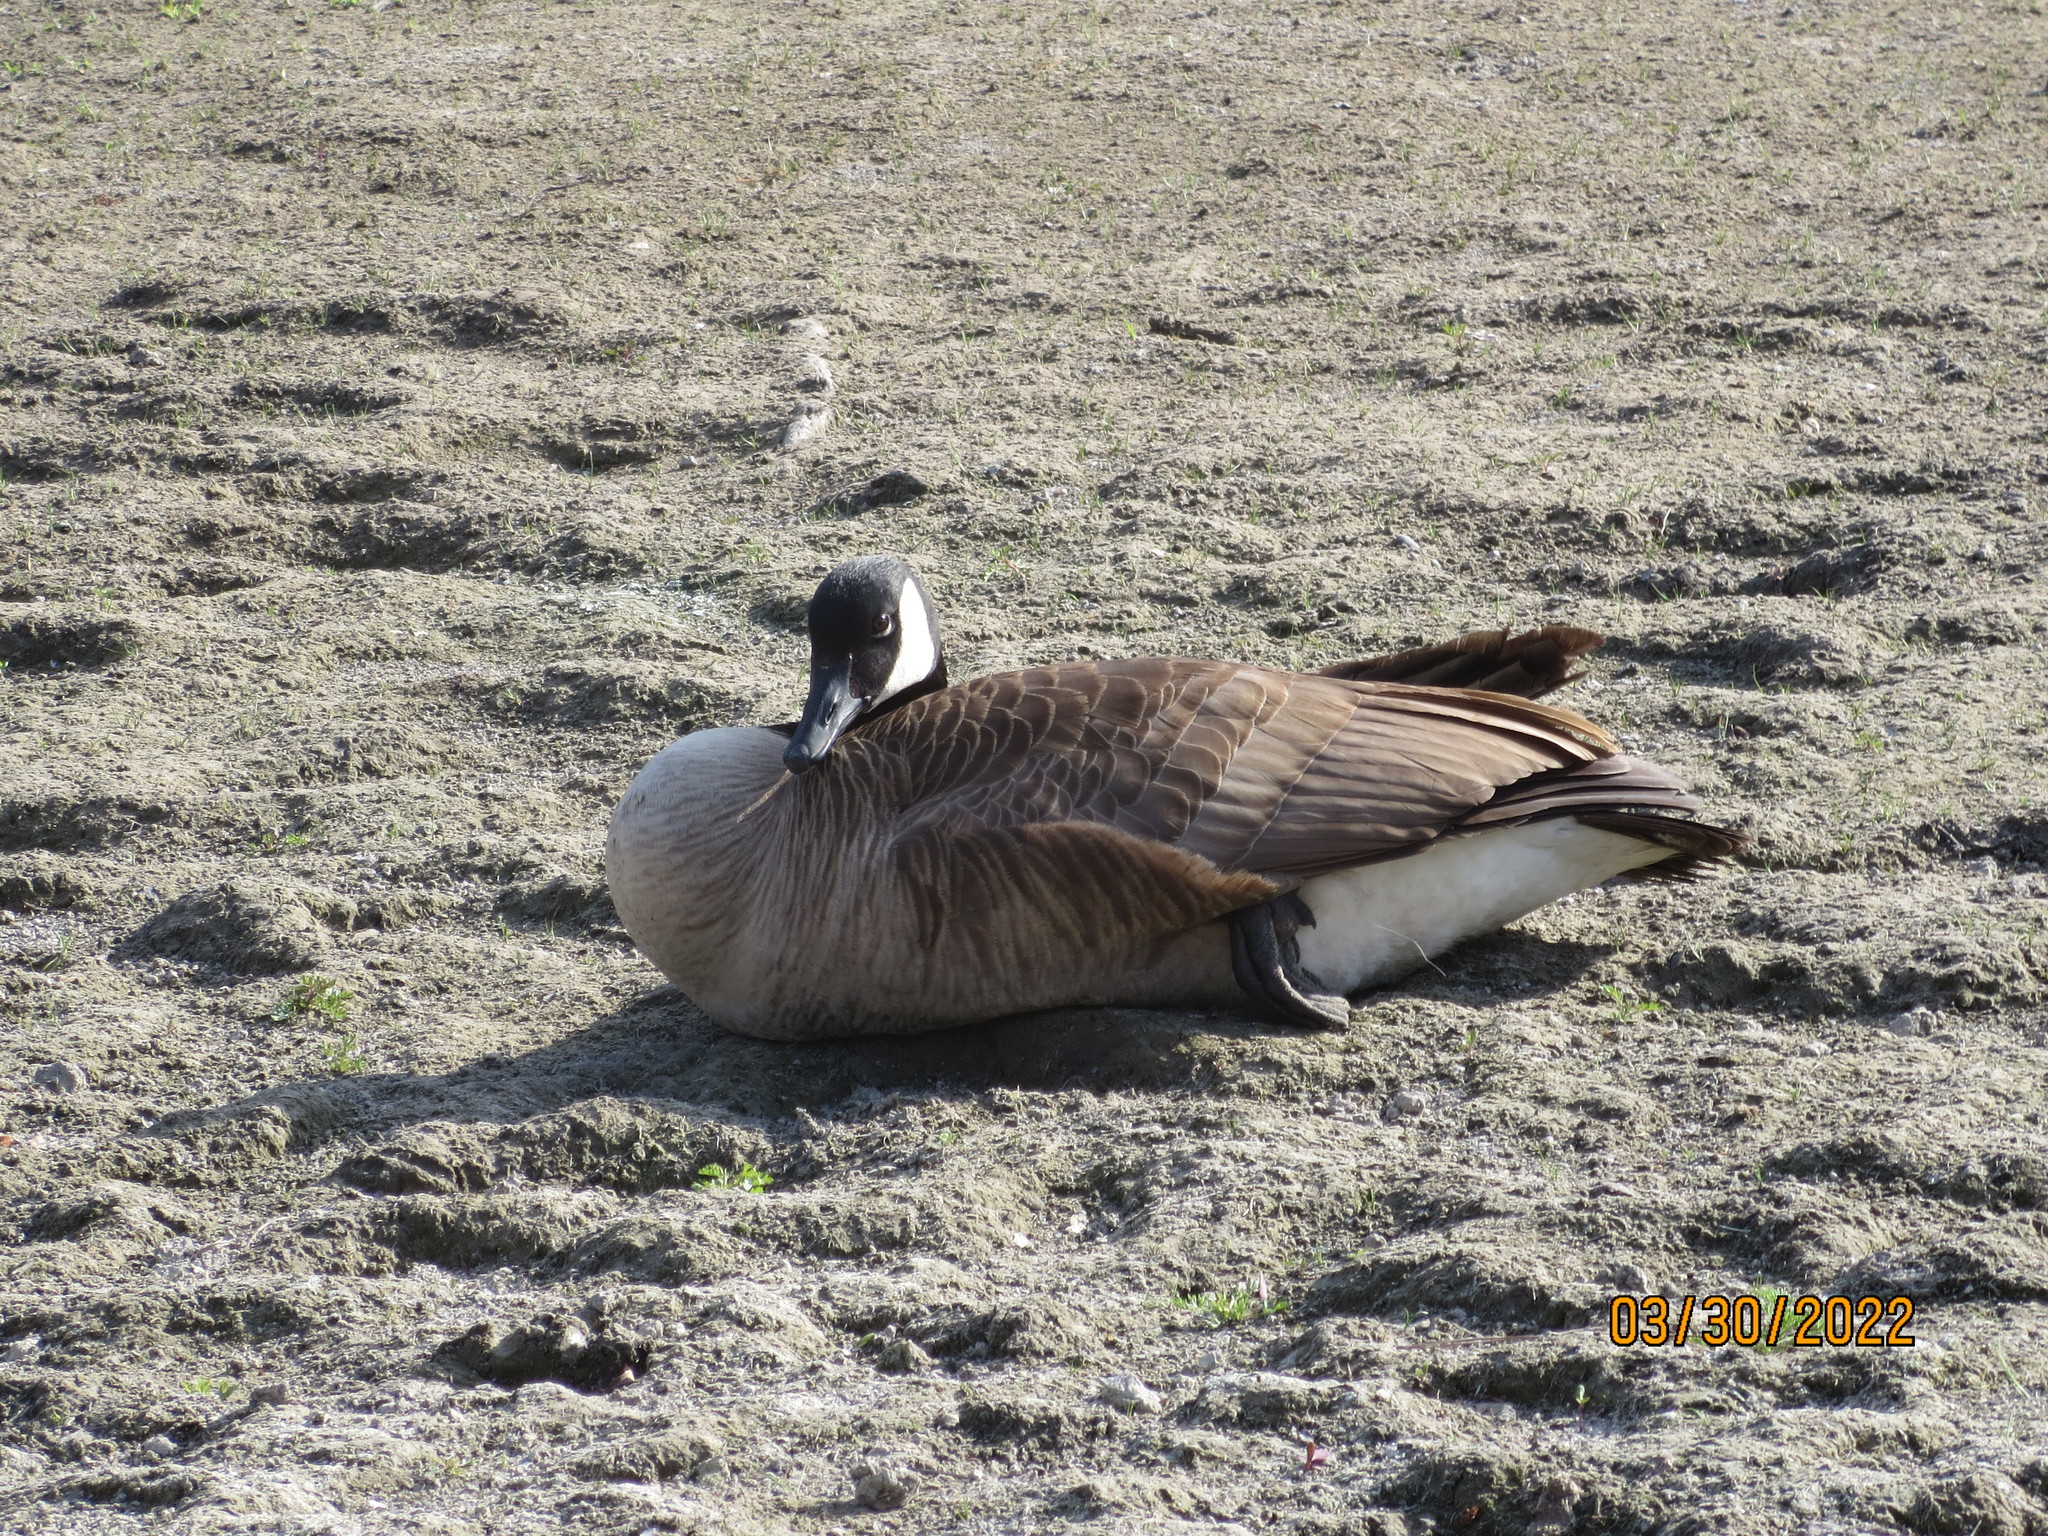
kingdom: Animalia
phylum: Chordata
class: Aves
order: Anseriformes
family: Anatidae
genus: Branta
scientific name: Branta canadensis
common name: Canada goose
